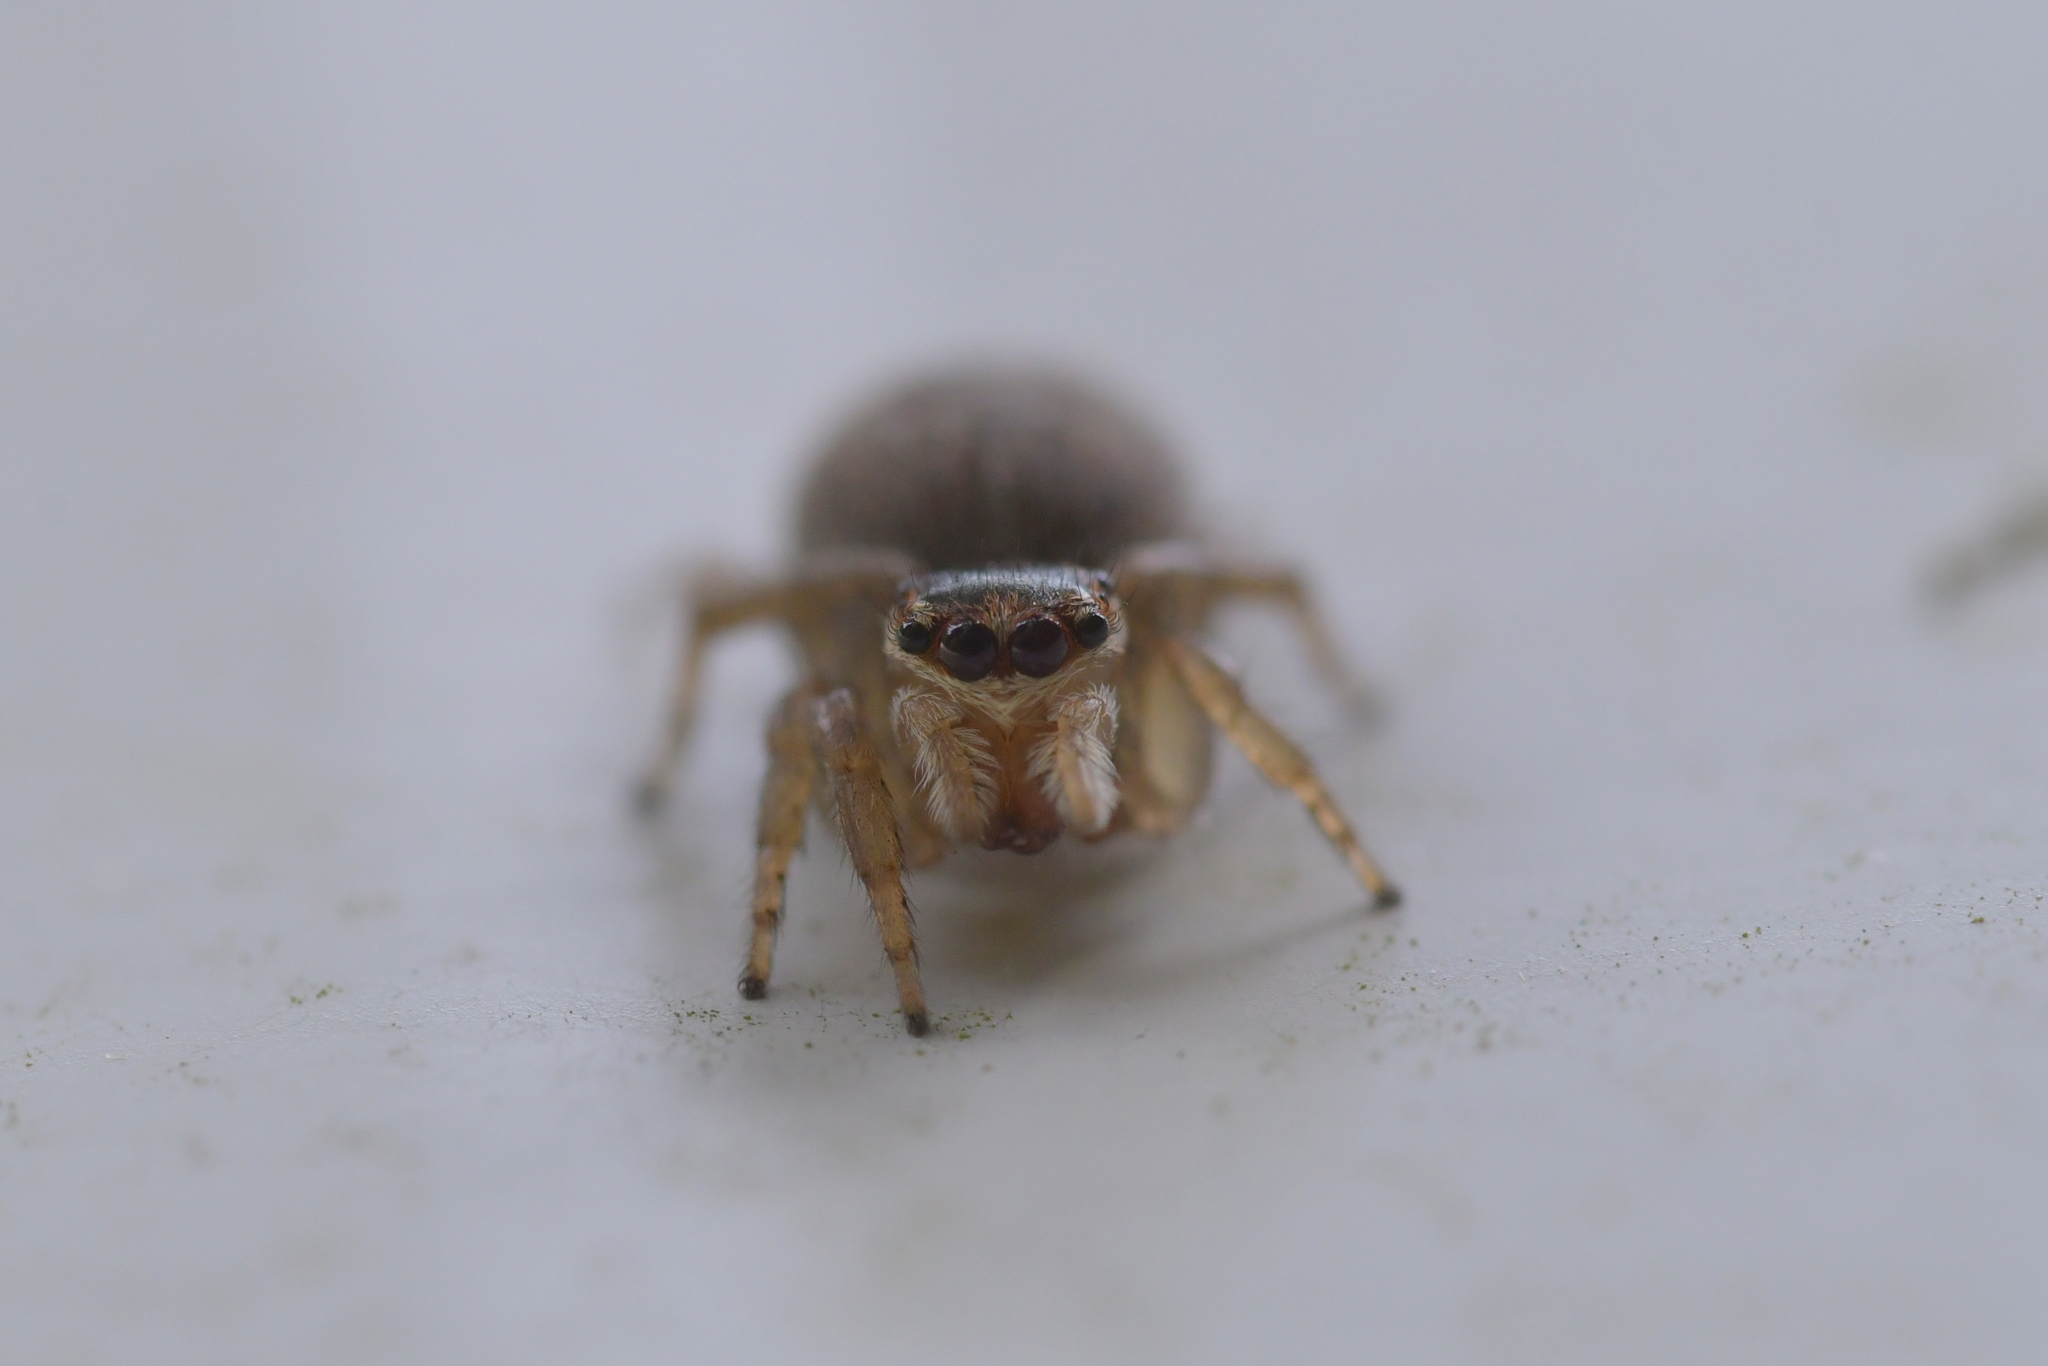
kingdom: Animalia
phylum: Arthropoda
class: Arachnida
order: Araneae
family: Salticidae
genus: Maratus
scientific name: Maratus griseus
